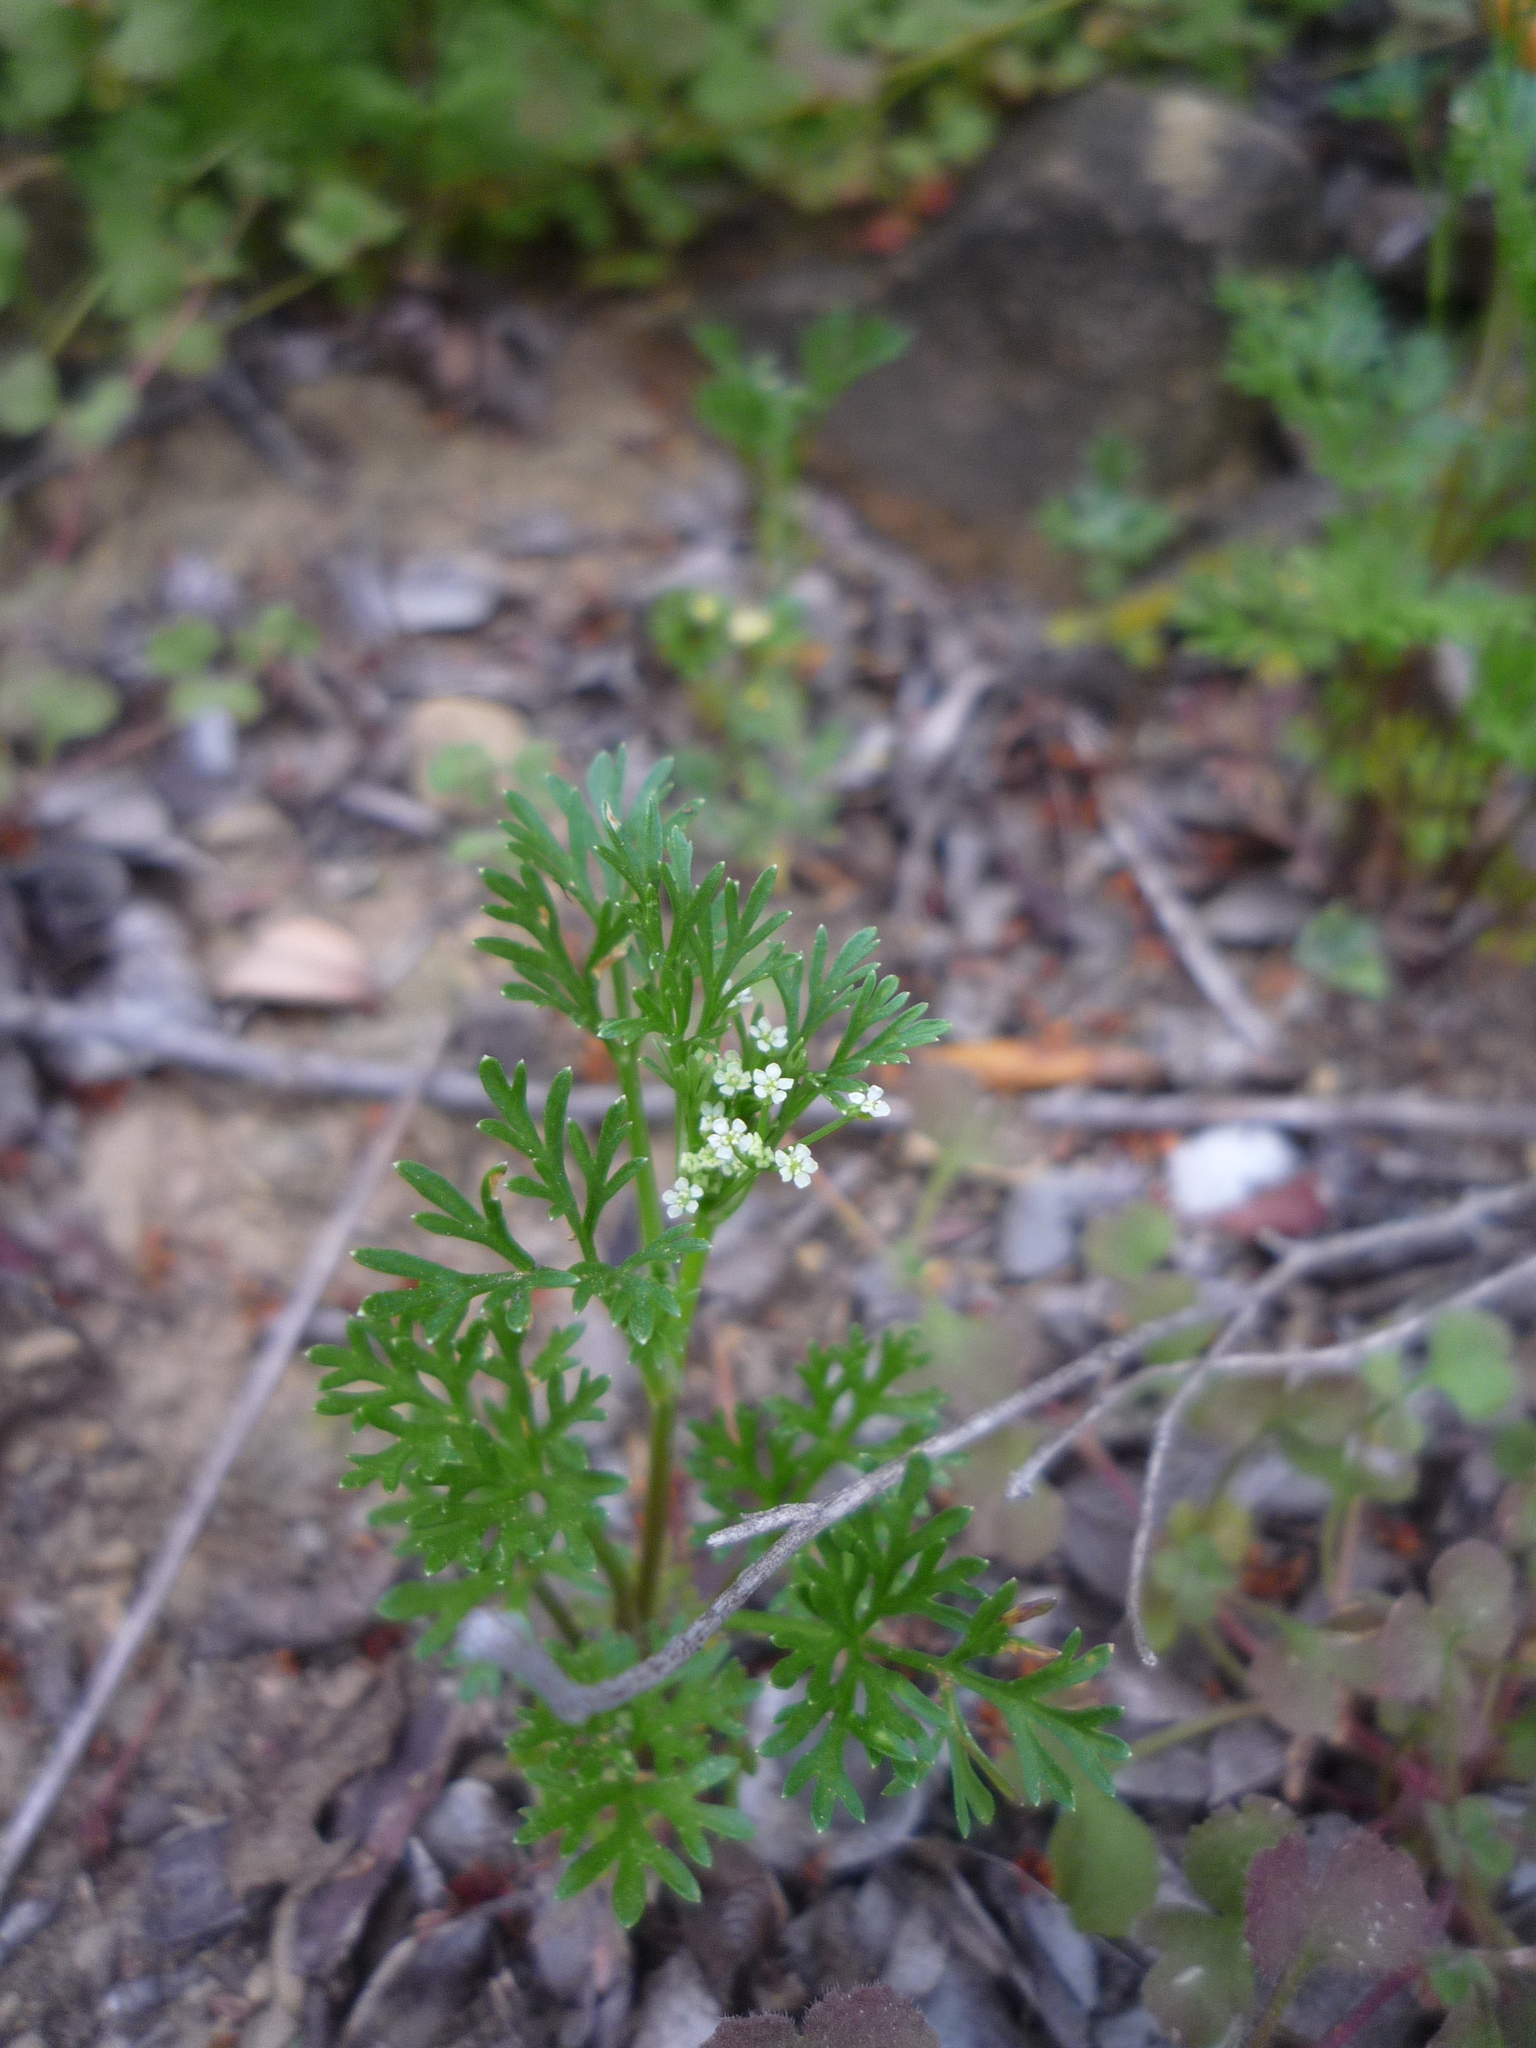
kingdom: Plantae
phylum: Tracheophyta
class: Magnoliopsida
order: Apiales
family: Apiaceae
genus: Apiastrum
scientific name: Apiastrum angustifolium
